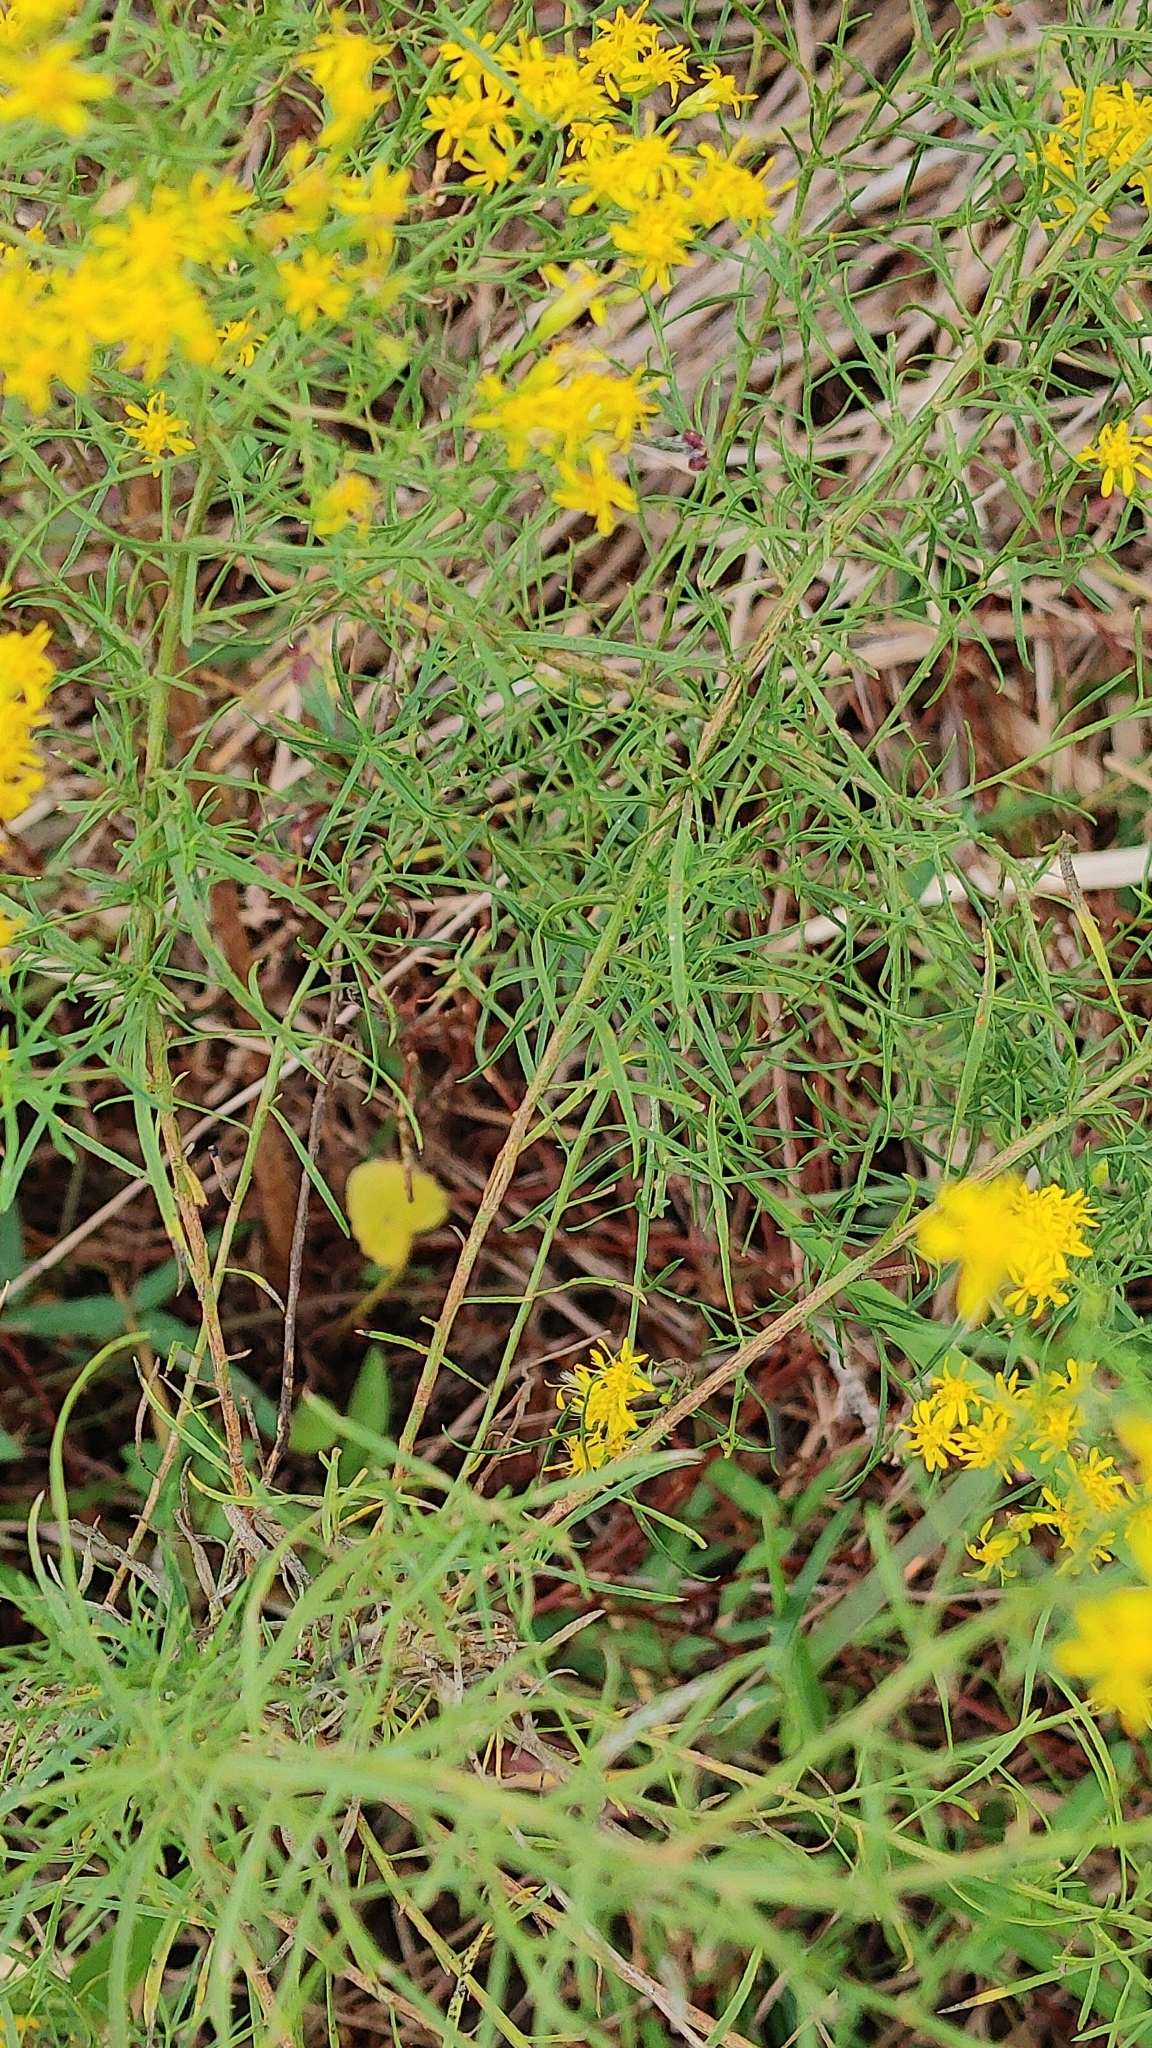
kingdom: Plantae
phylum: Tracheophyta
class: Magnoliopsida
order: Asterales
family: Asteraceae
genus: Euthamia
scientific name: Euthamia caroliniana
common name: Coastal plain goldentop
